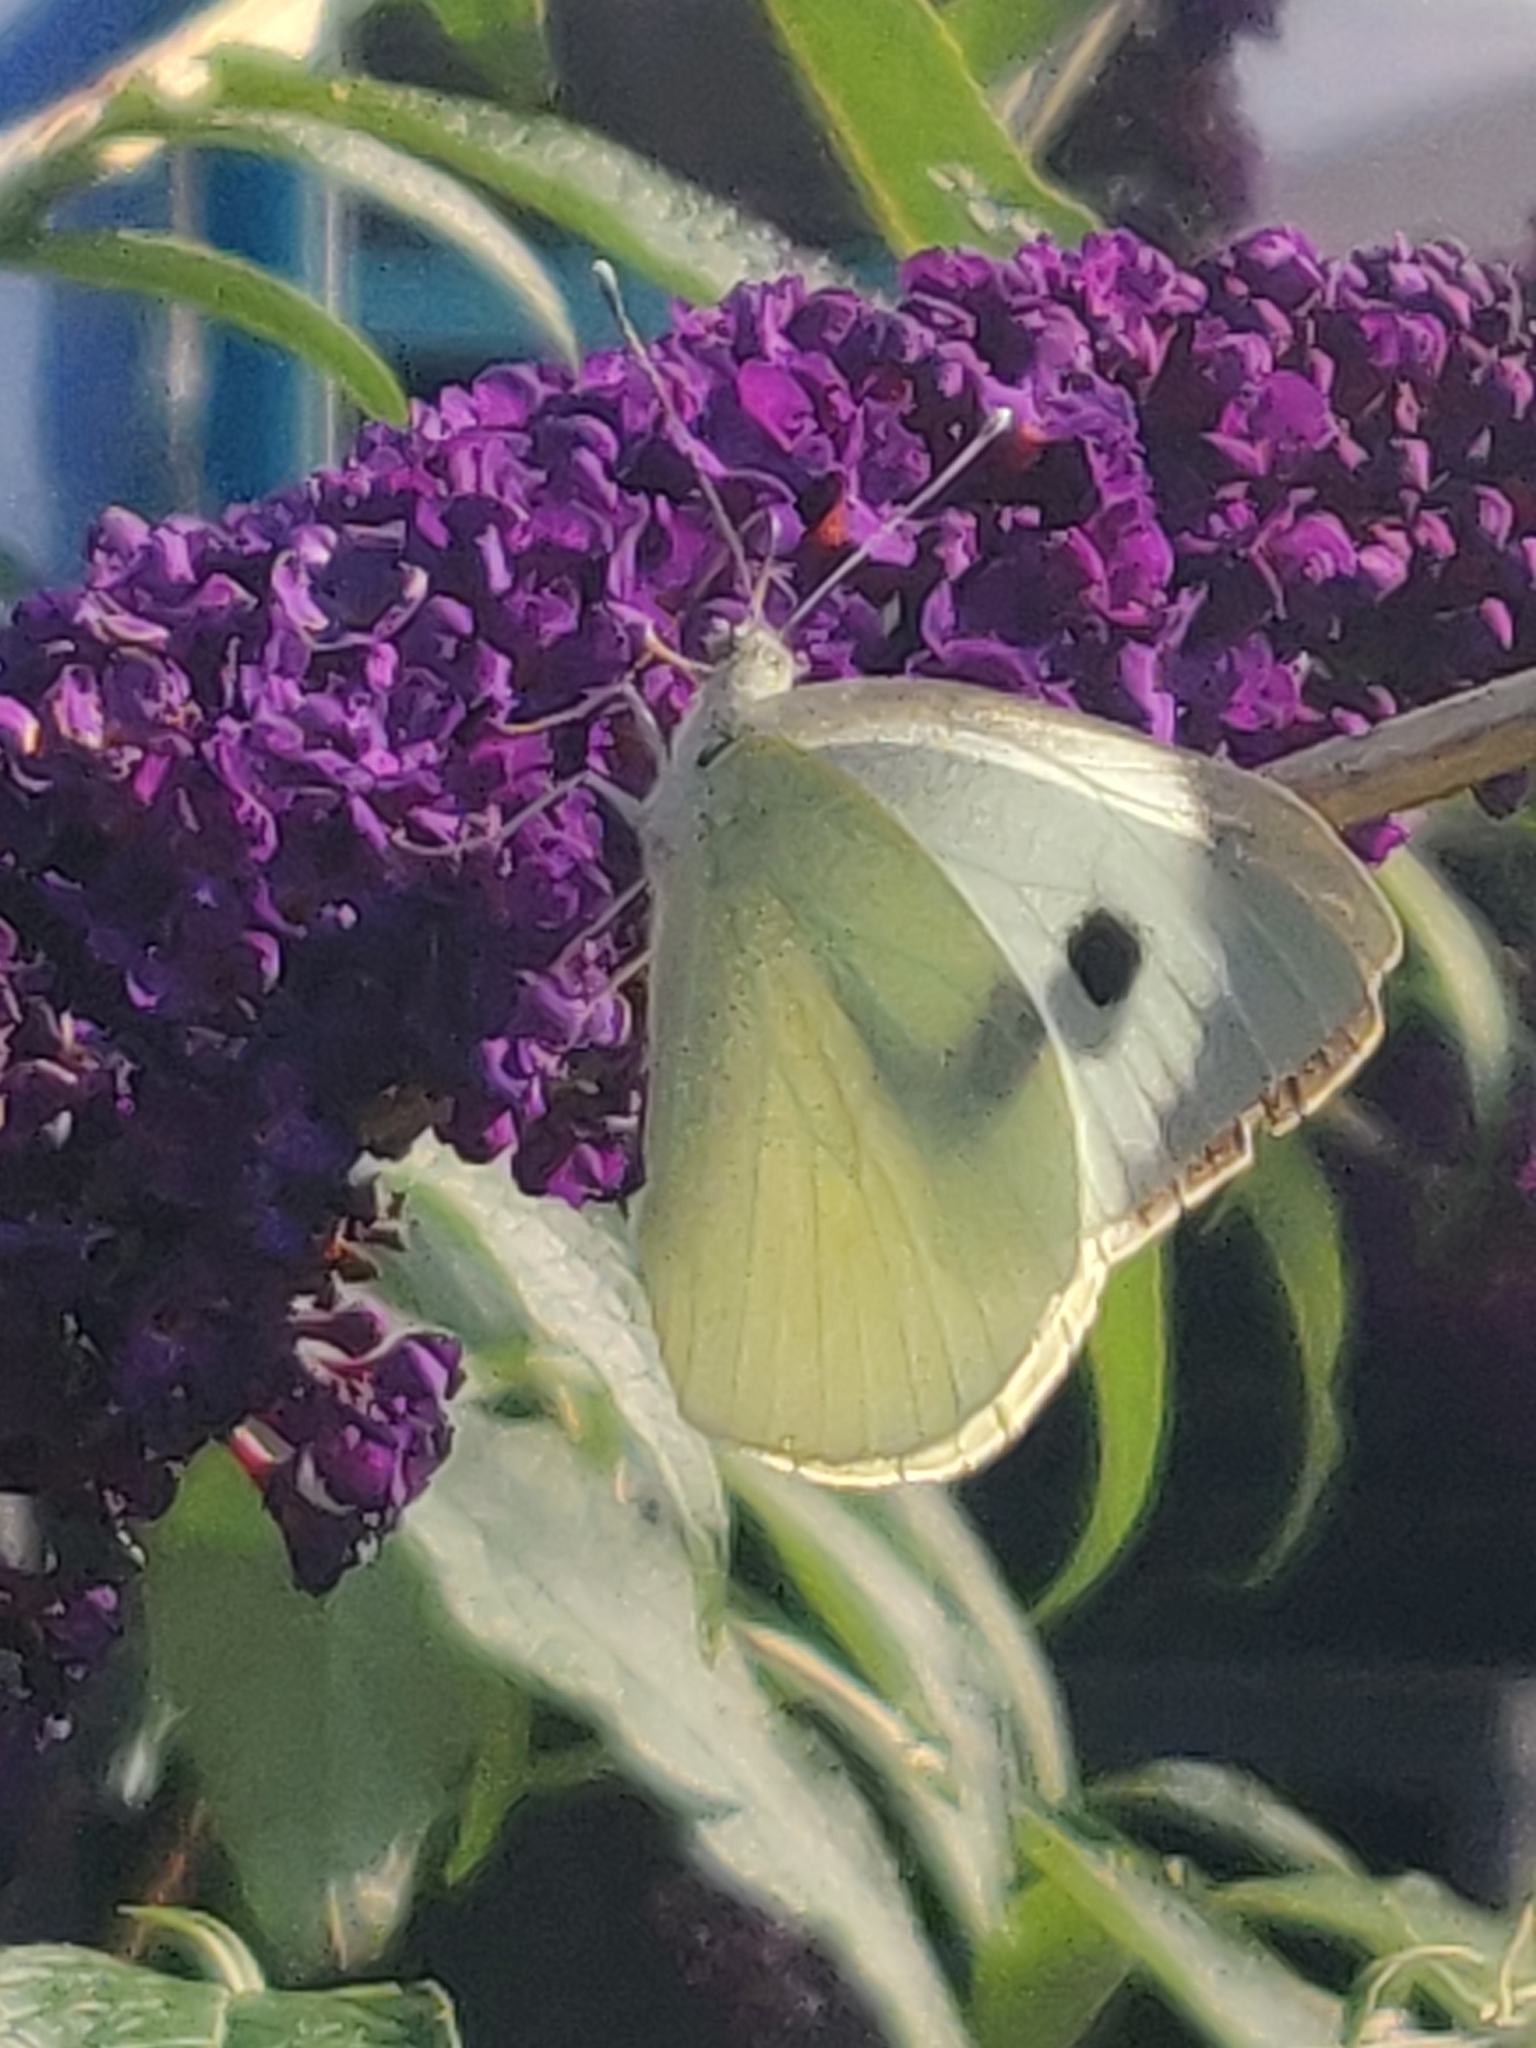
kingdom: Animalia
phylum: Arthropoda
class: Insecta
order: Lepidoptera
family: Pieridae
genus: Pieris
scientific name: Pieris brassicae
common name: Large white
